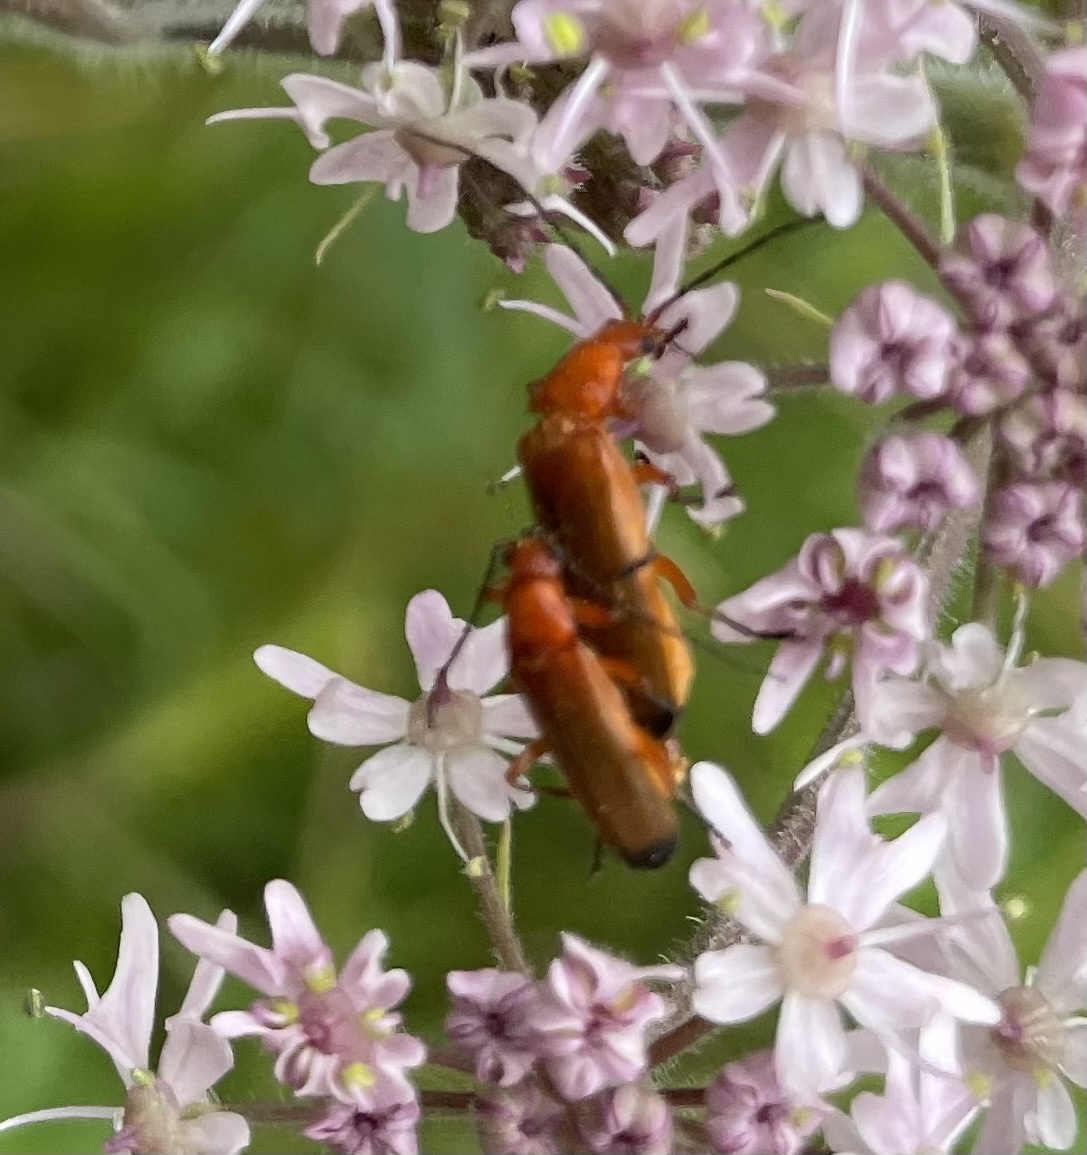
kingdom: Animalia
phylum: Arthropoda
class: Insecta
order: Coleoptera
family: Cantharidae
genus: Rhagonycha
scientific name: Rhagonycha fulva
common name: Common red soldier beetle
